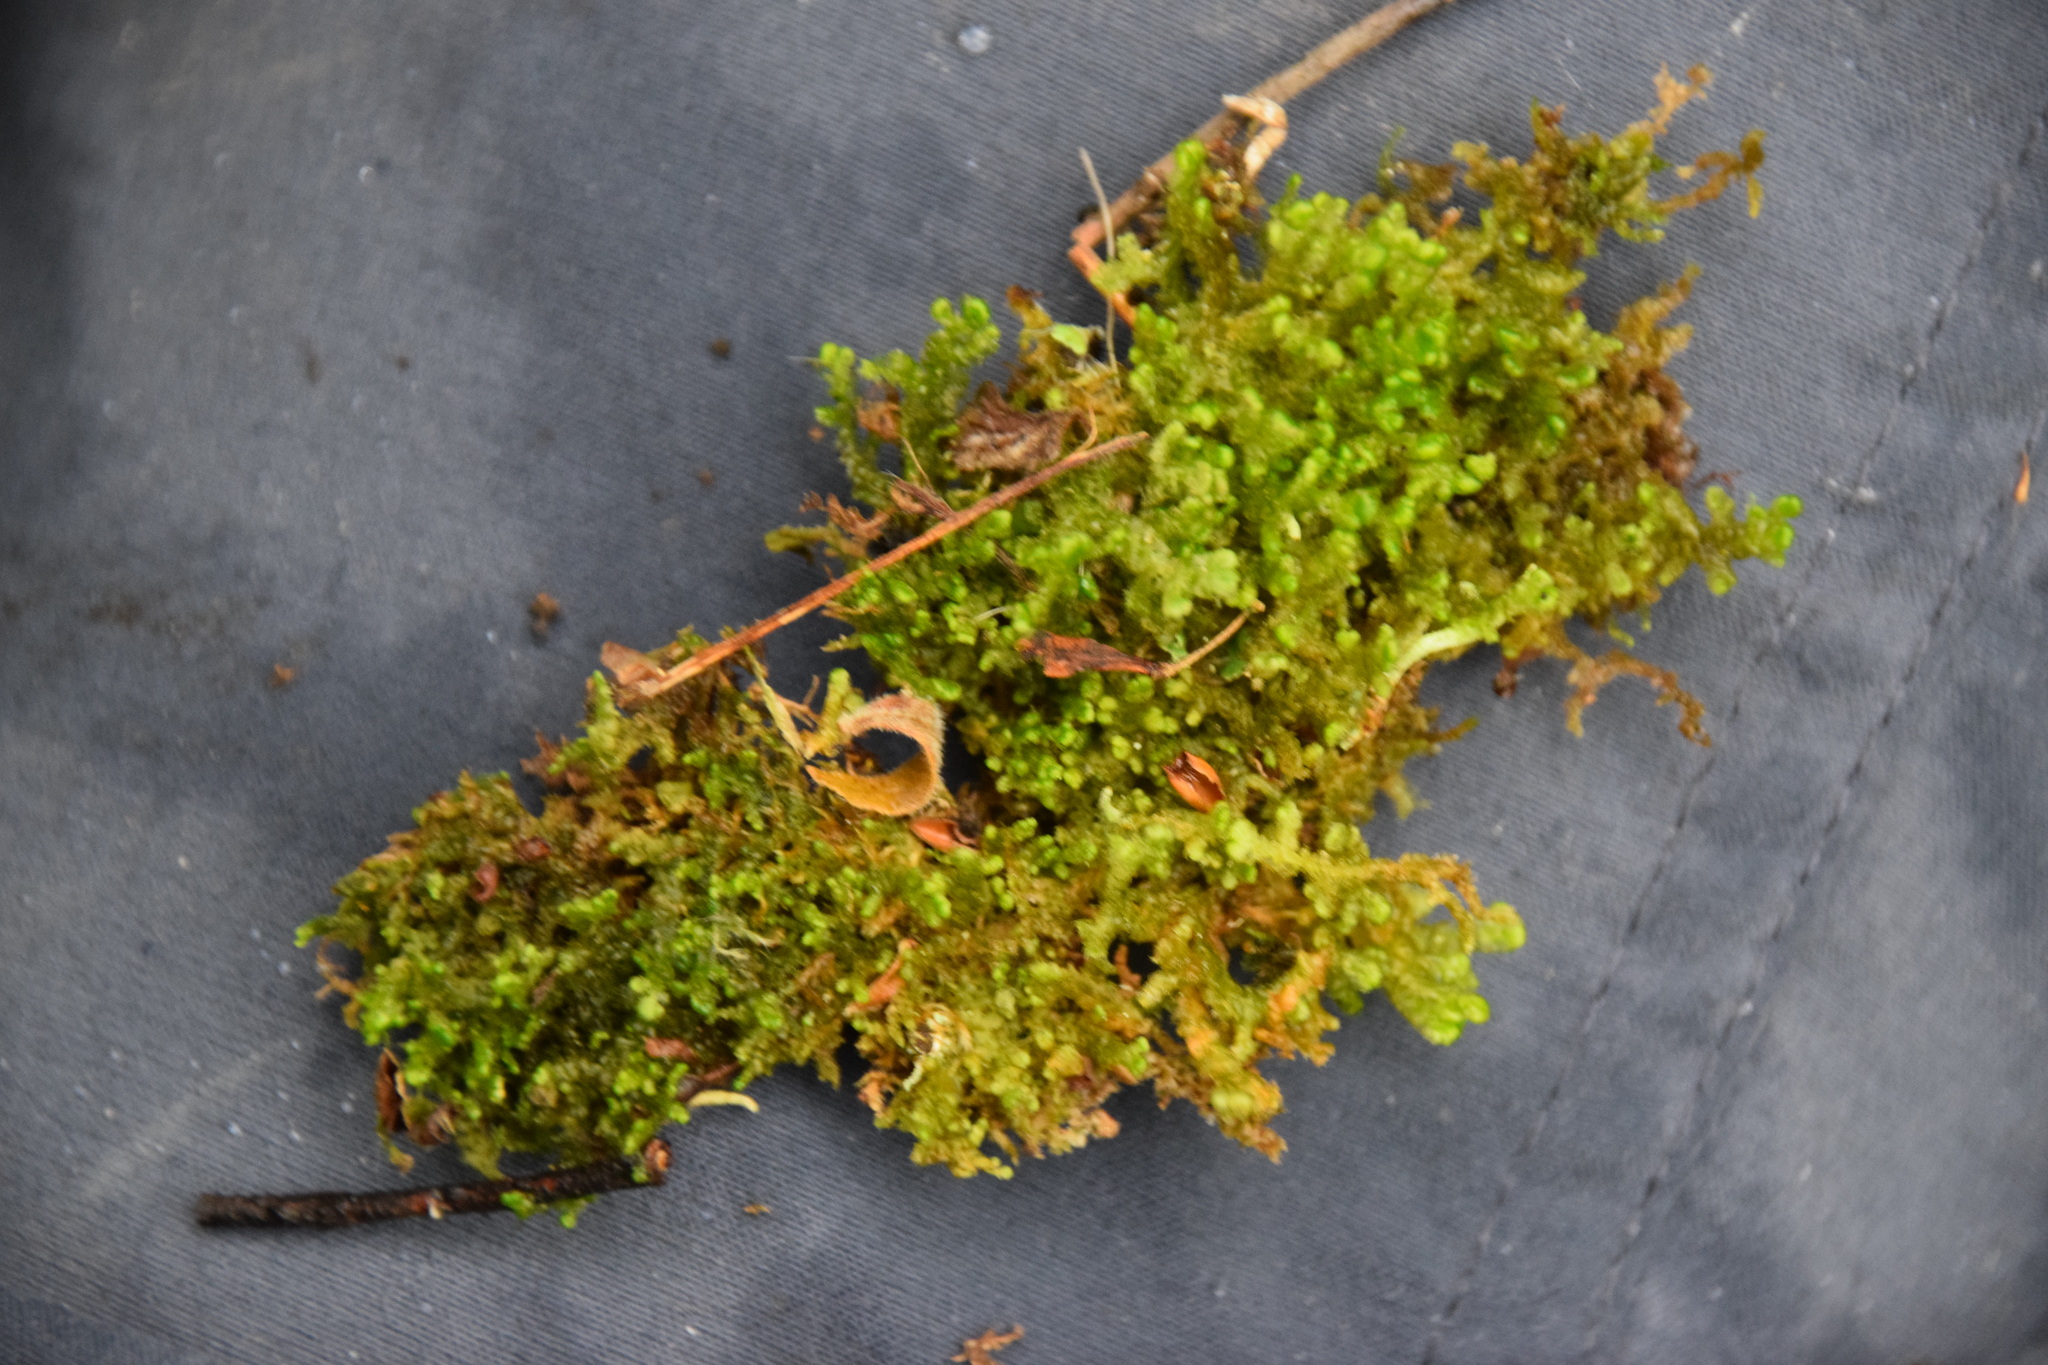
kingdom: Plantae
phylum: Marchantiophyta
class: Jungermanniopsida
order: Ptilidiales
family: Ptilidiaceae
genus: Ptilidium
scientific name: Ptilidium ciliare
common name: Ciliate fringewort
